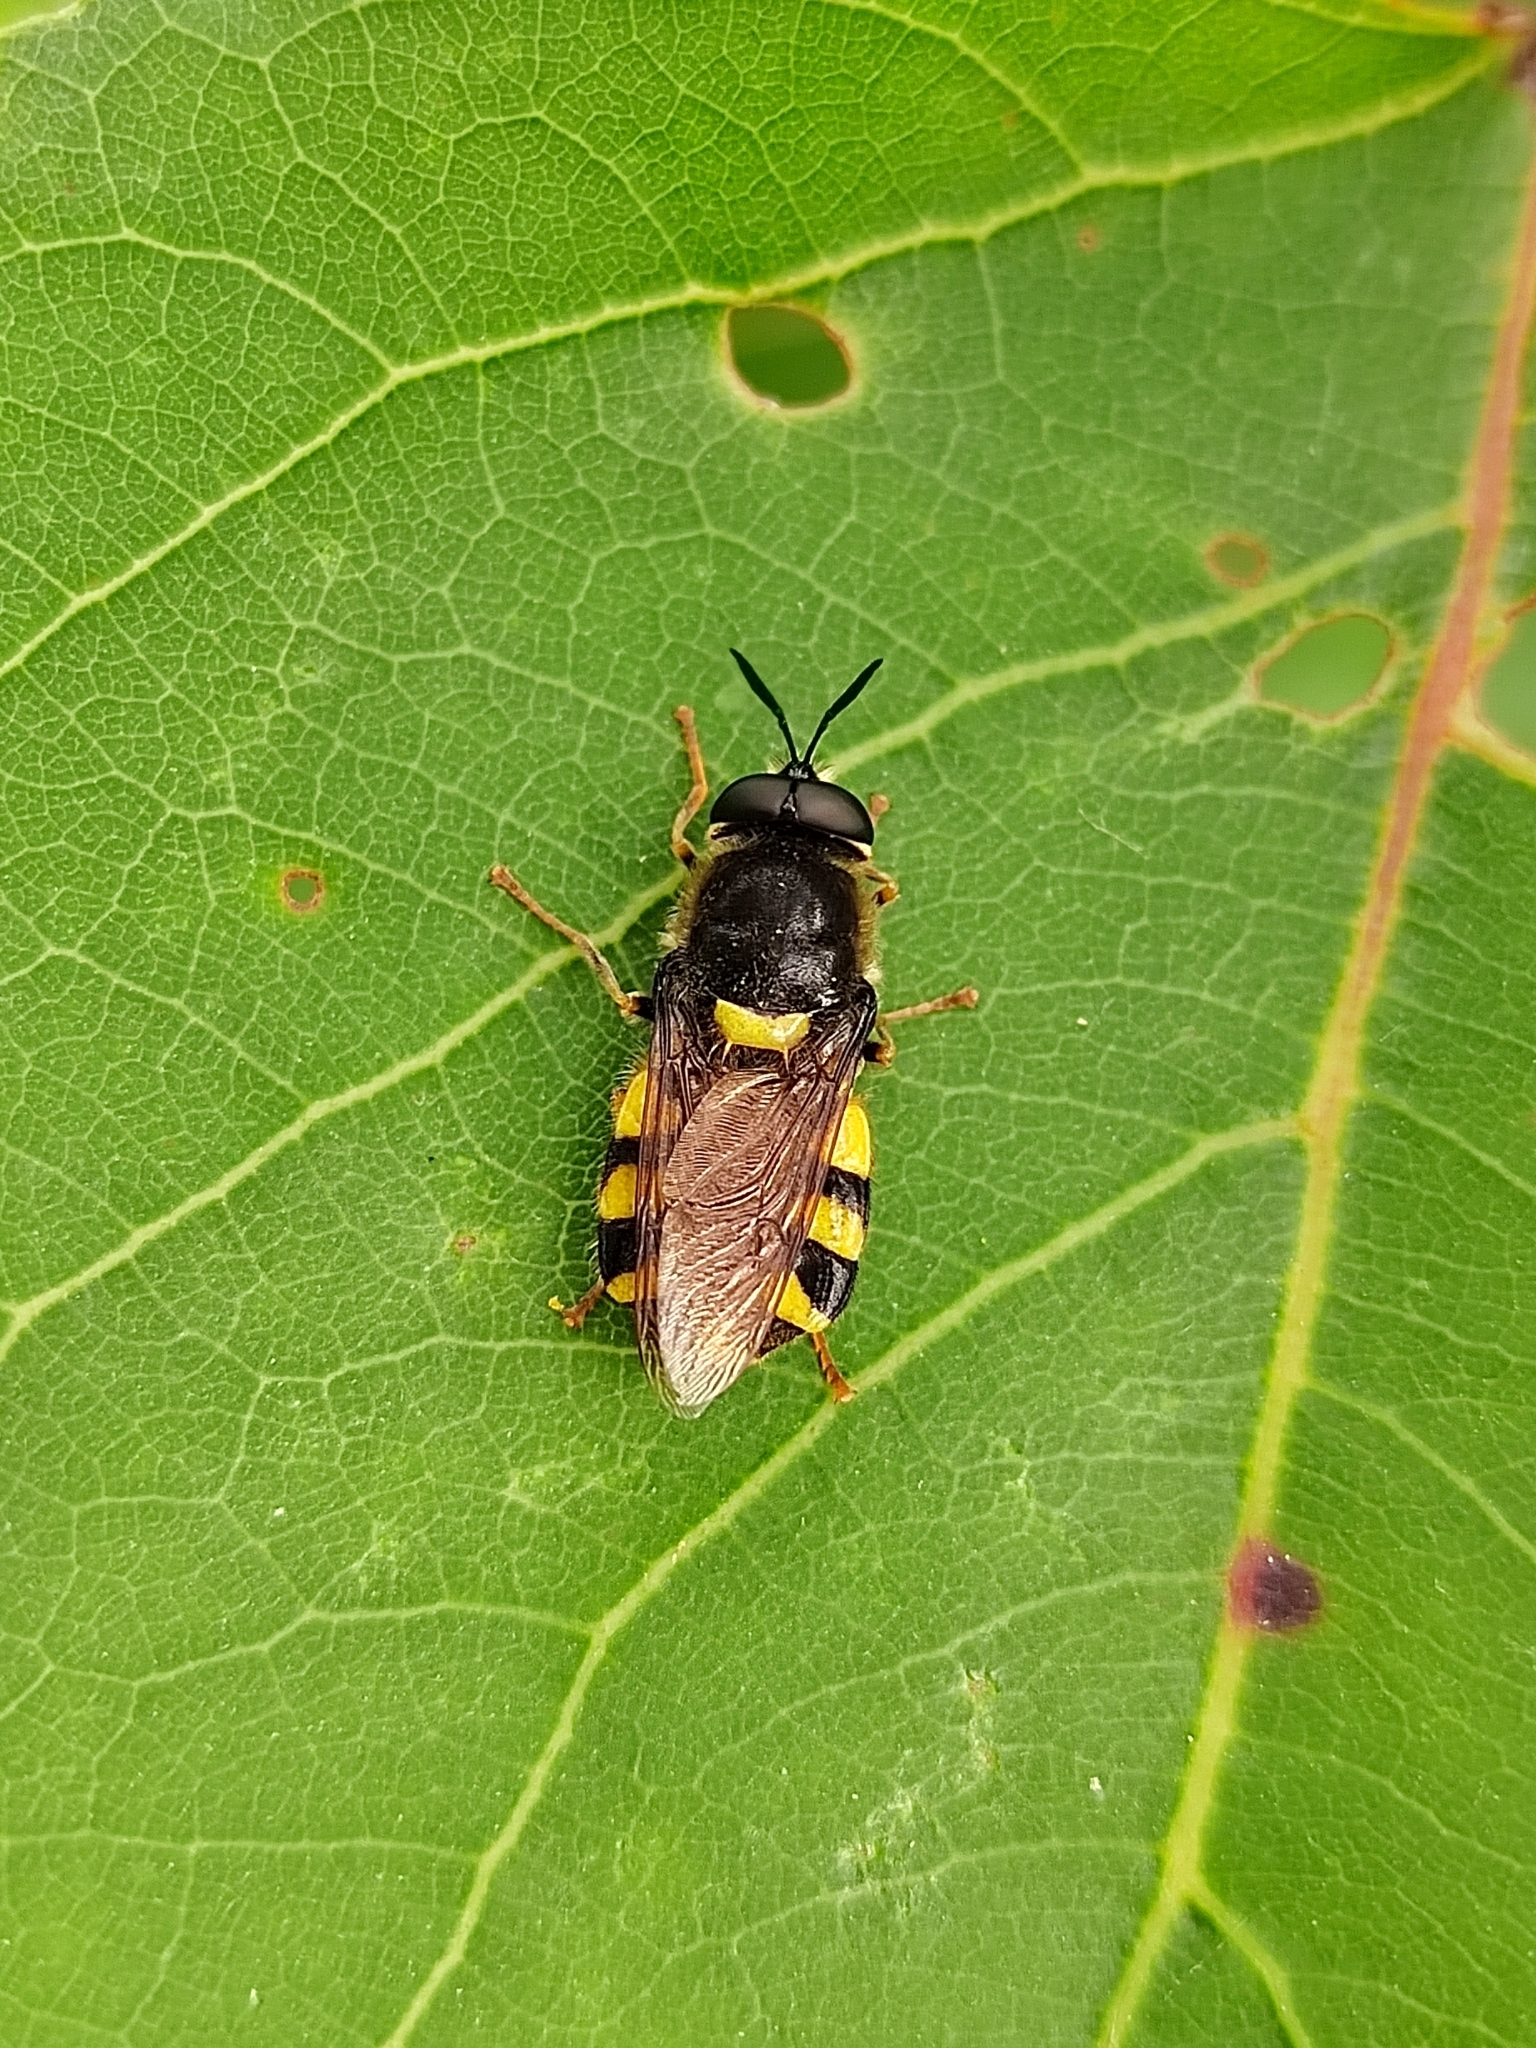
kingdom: Animalia
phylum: Arthropoda
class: Insecta
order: Diptera
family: Stratiomyidae
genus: Stratiomys
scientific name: Stratiomys
